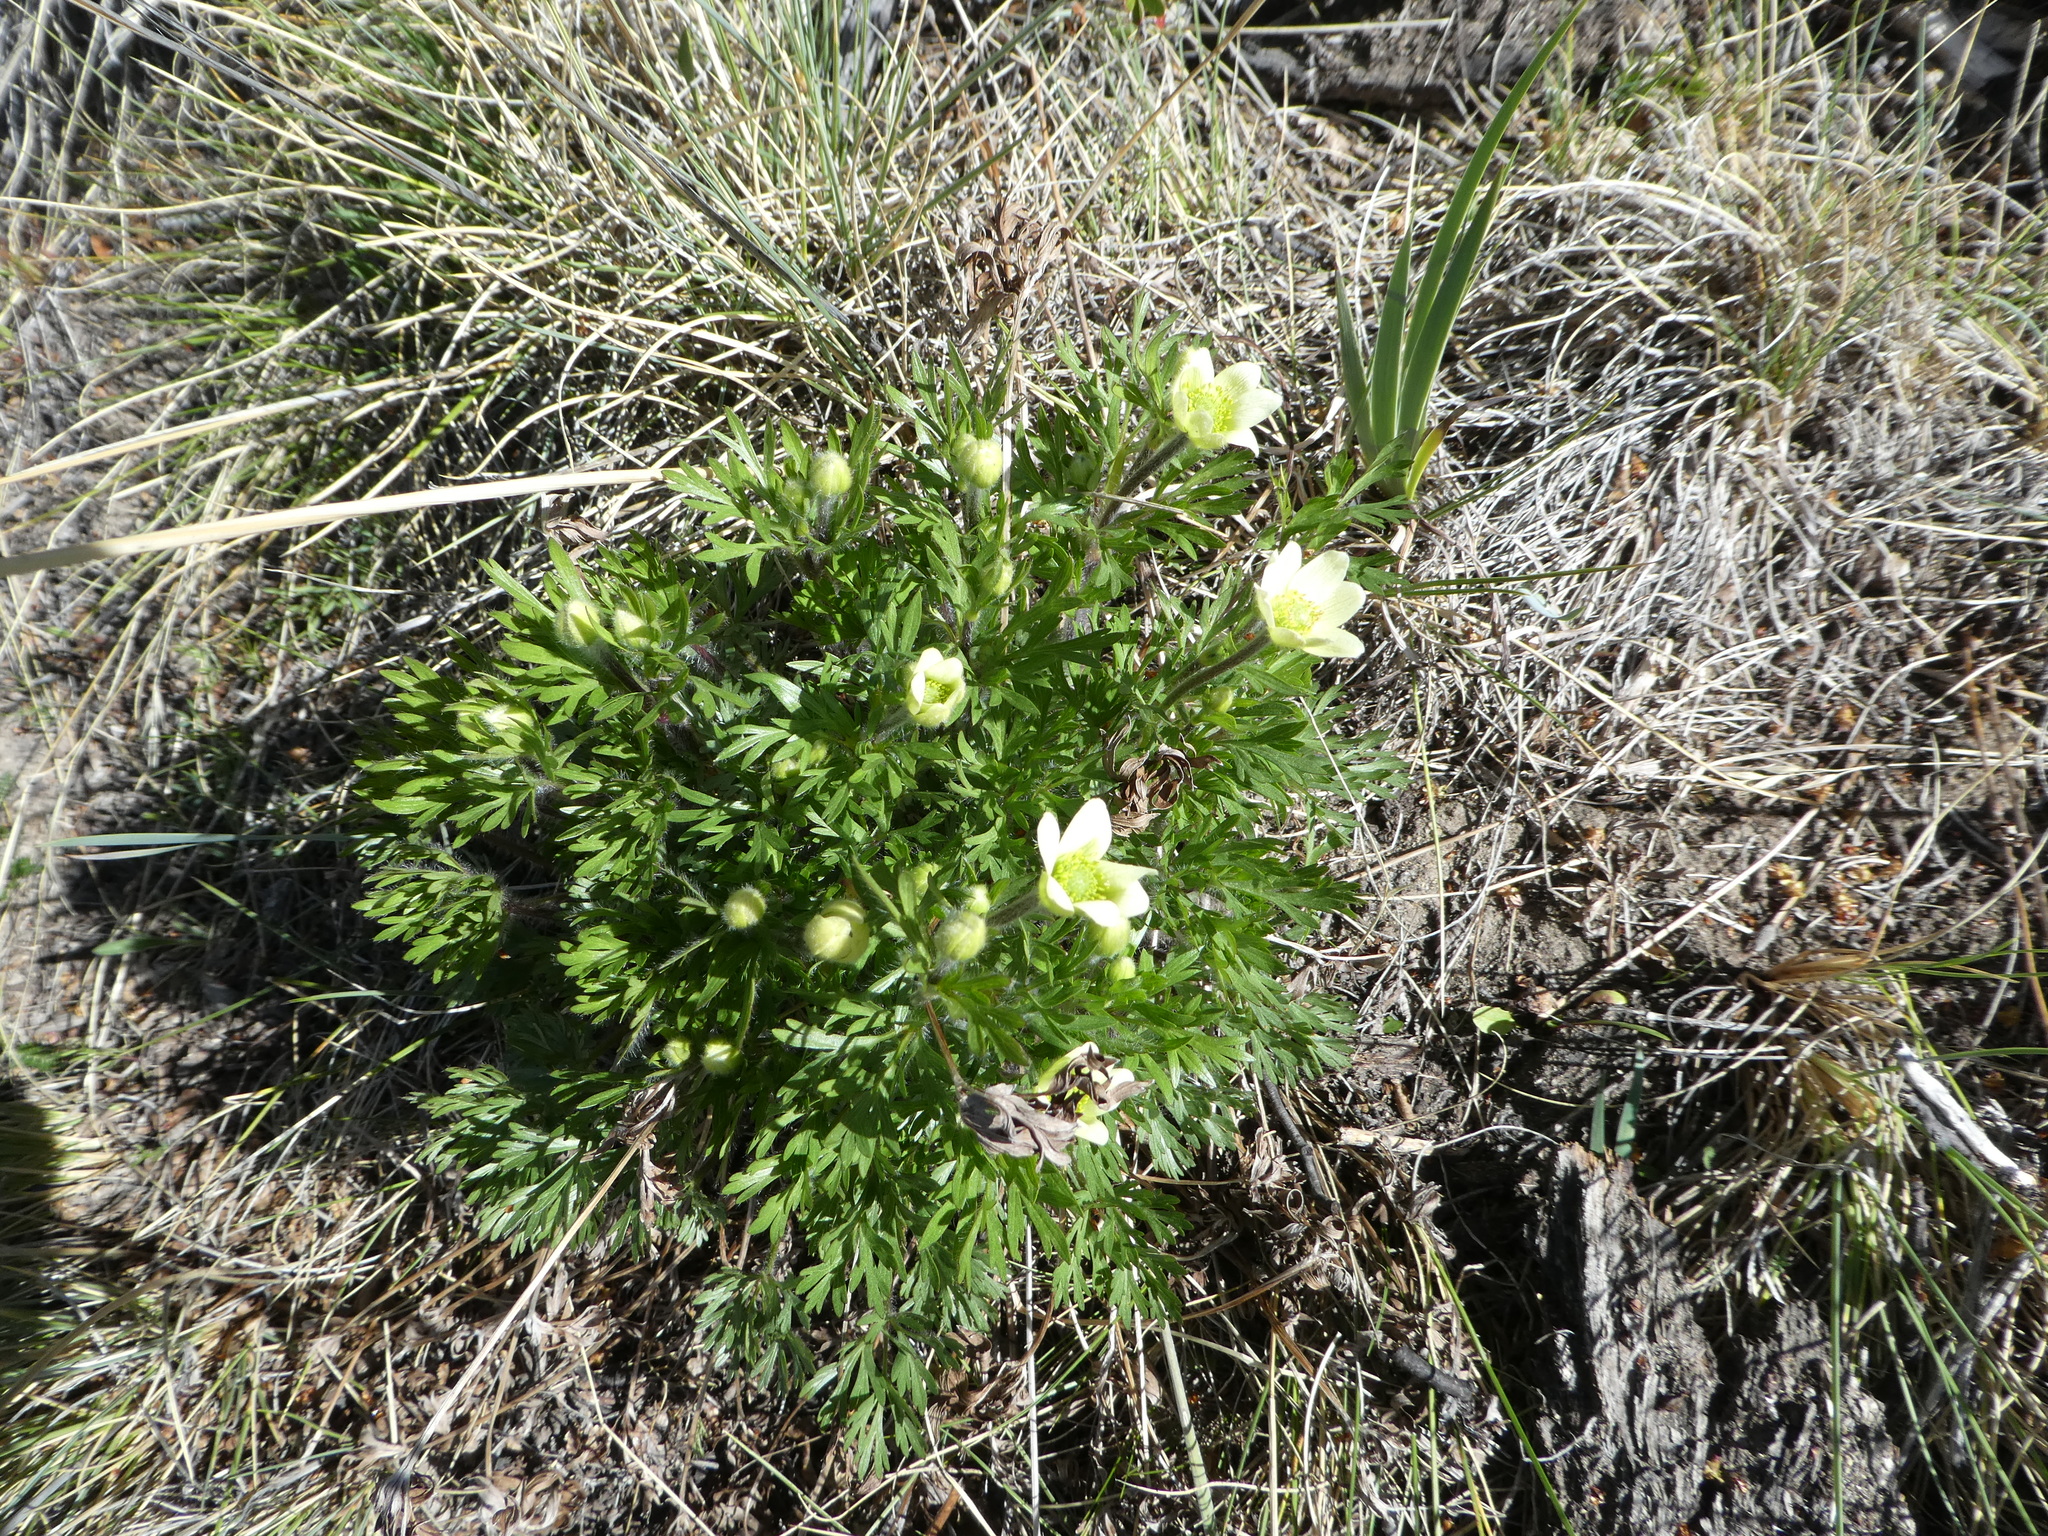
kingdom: Plantae
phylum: Tracheophyta
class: Magnoliopsida
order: Ranunculales
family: Ranunculaceae
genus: Anemone
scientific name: Anemone multifida
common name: Bird's-foot anemone
